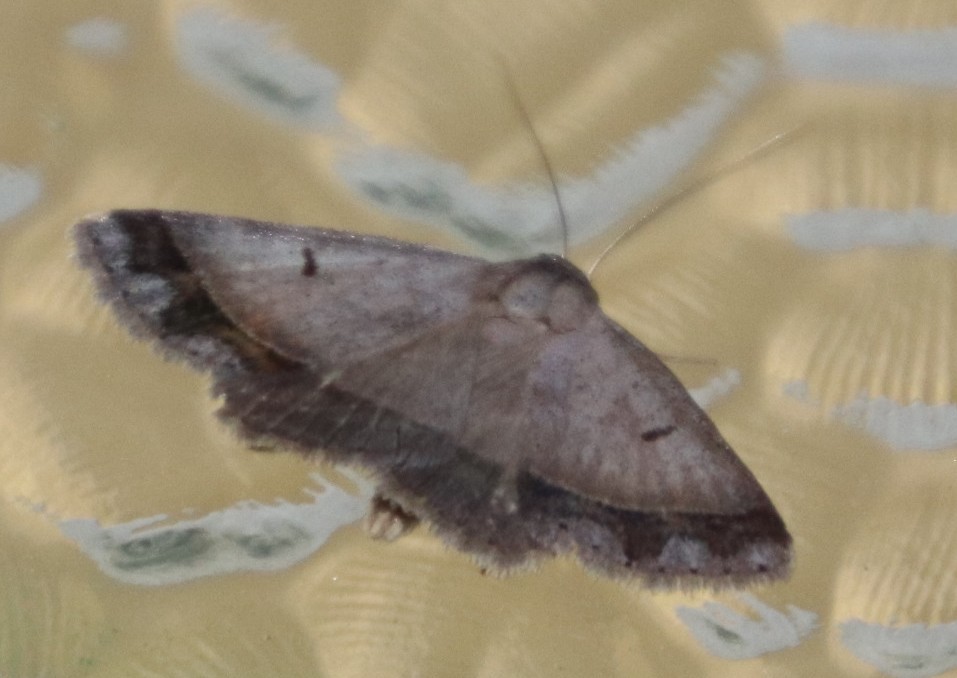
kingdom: Animalia
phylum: Arthropoda
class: Insecta
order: Lepidoptera
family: Erebidae
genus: Plecoptera
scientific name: Plecoptera annexa
